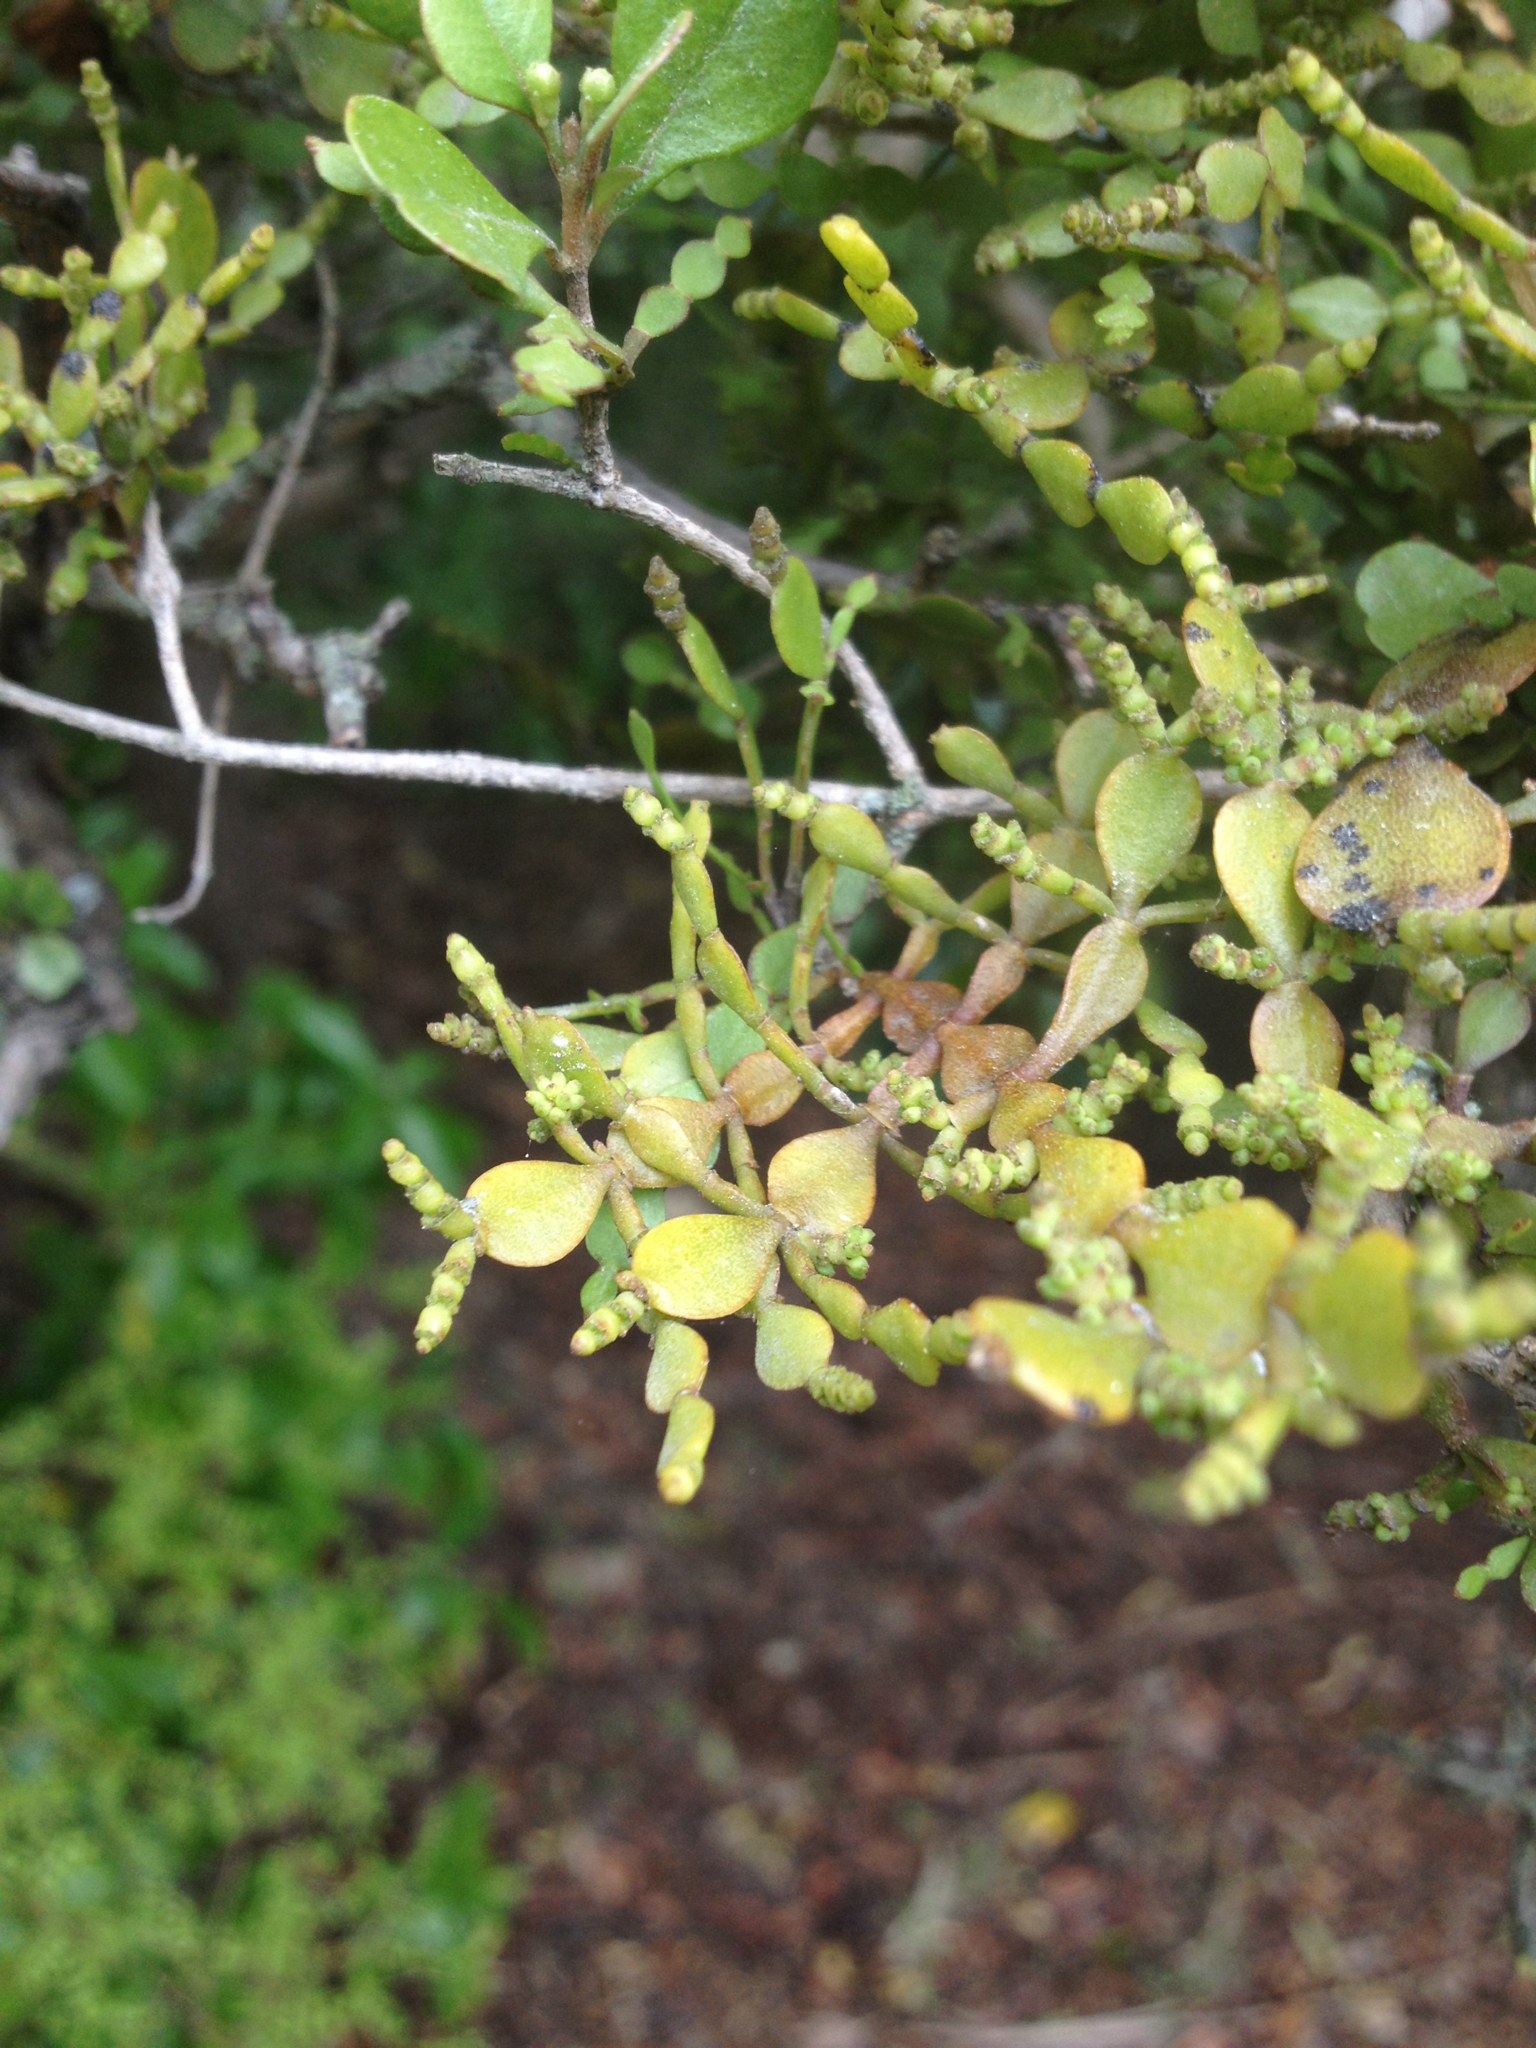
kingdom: Plantae
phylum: Tracheophyta
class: Magnoliopsida
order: Santalales
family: Viscaceae
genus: Korthalsella
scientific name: Korthalsella lindsayi
